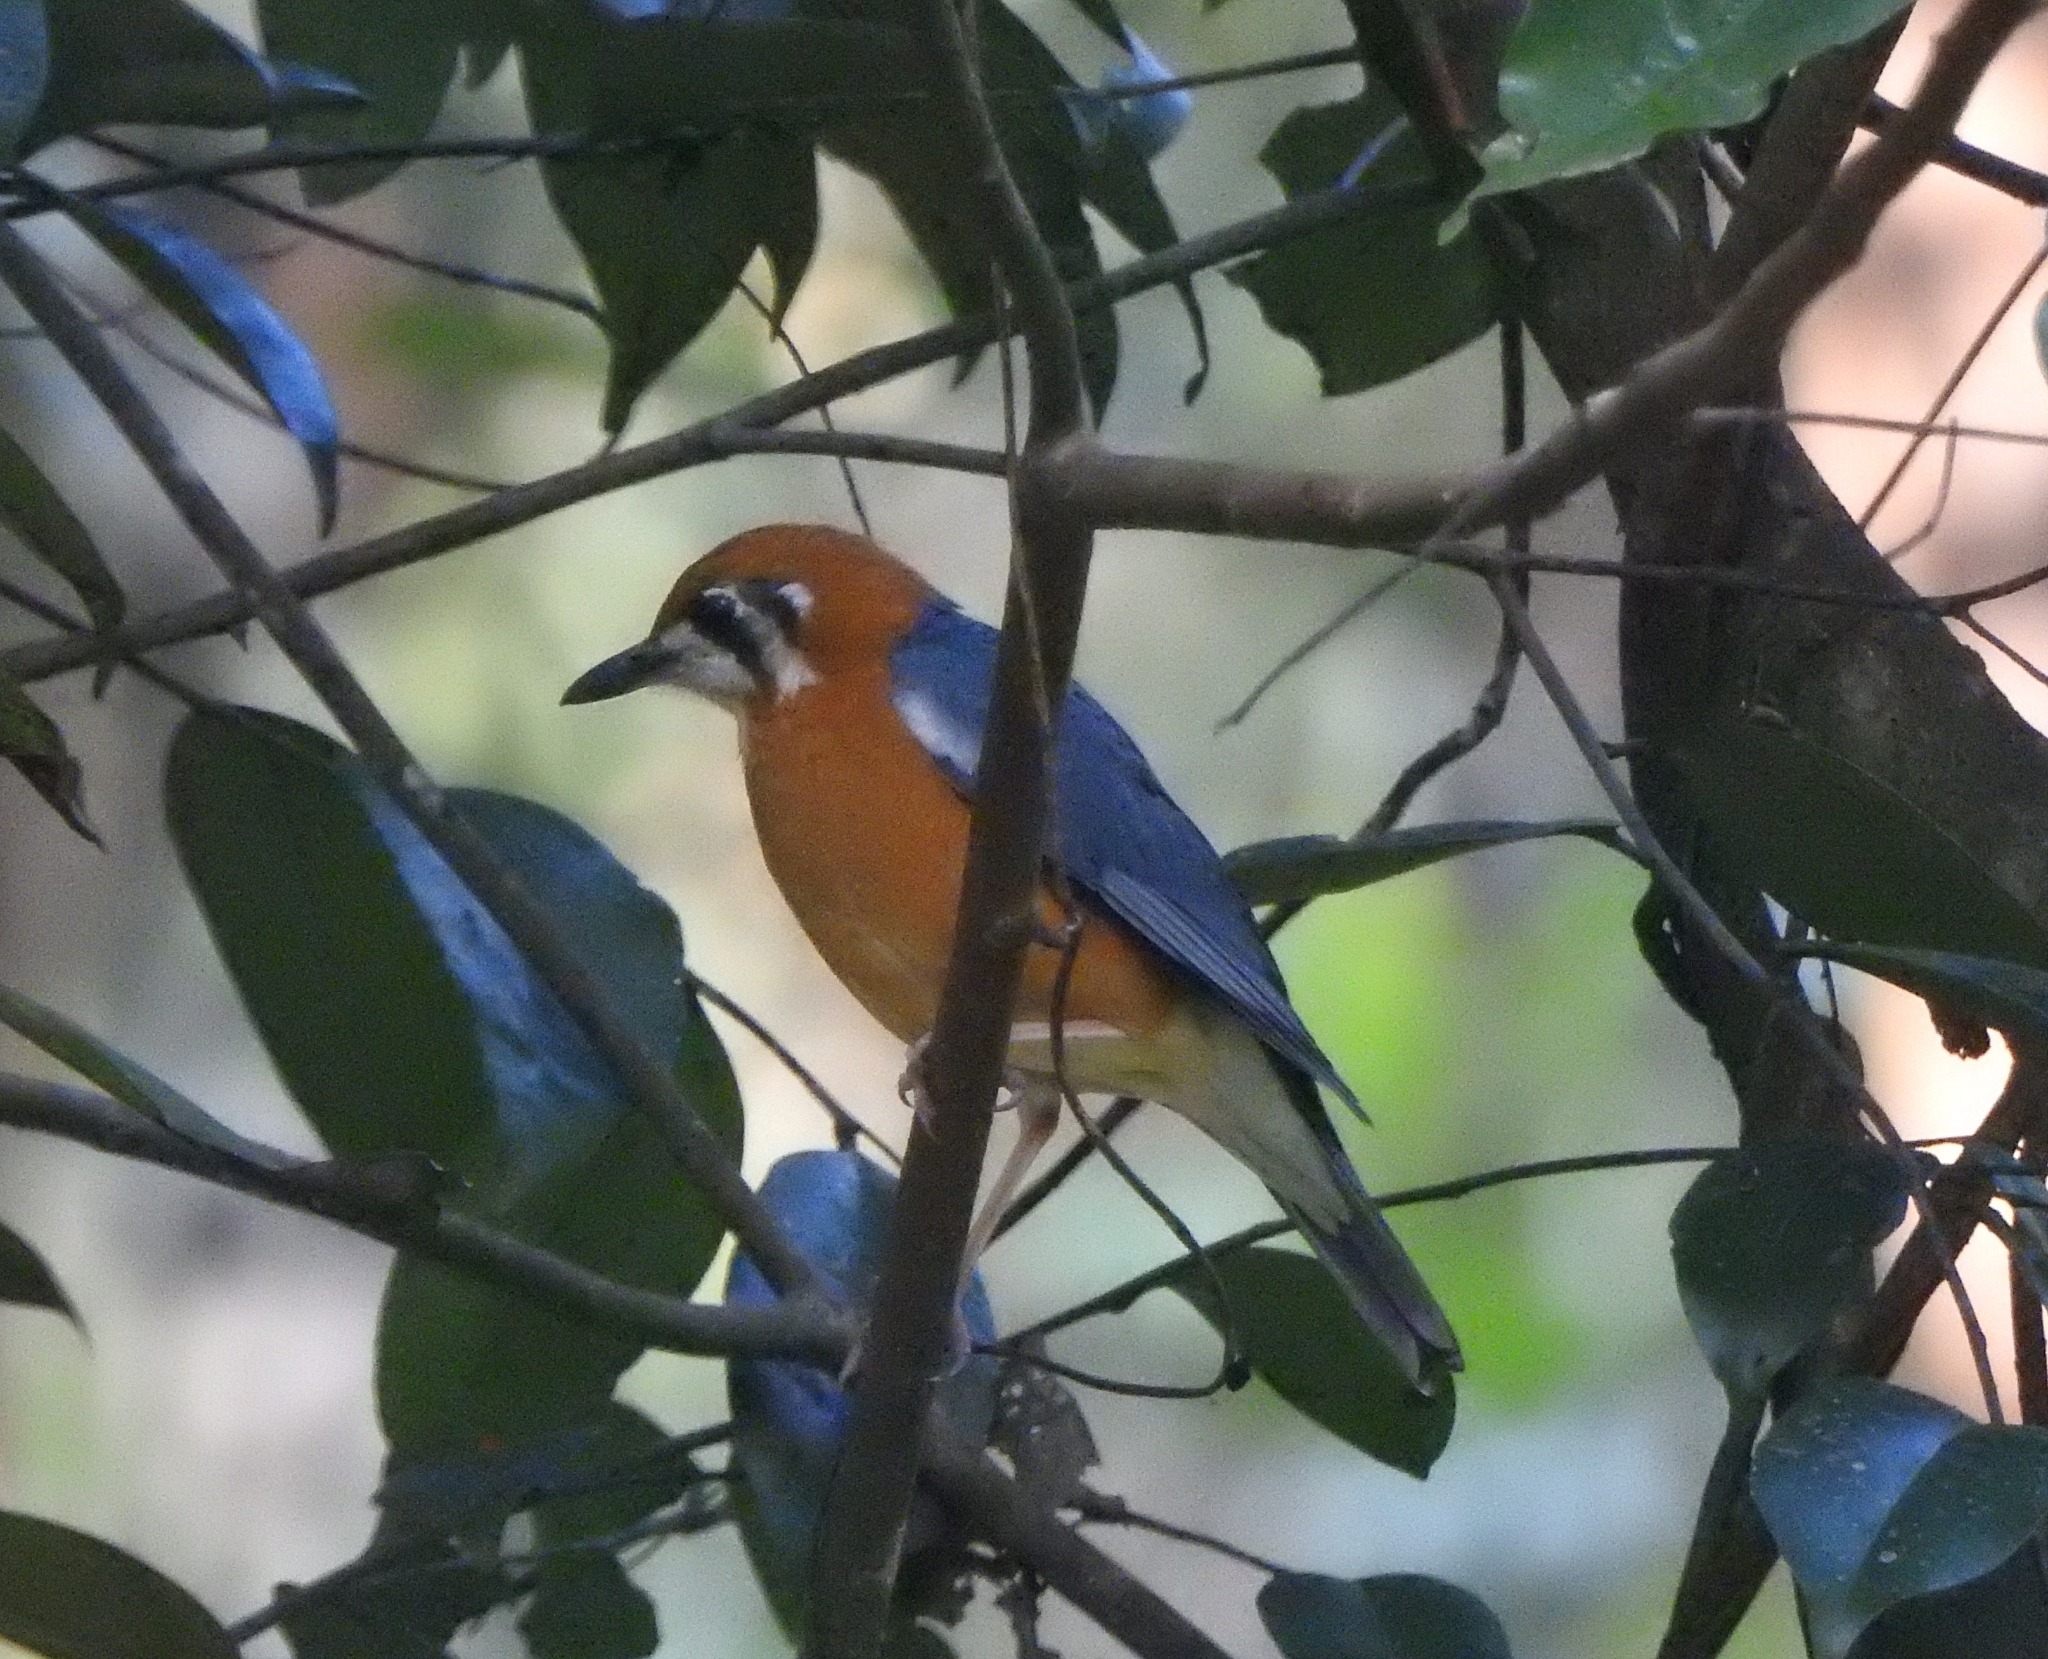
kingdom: Animalia
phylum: Chordata
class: Aves
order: Passeriformes
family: Turdidae
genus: Geokichla
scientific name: Geokichla citrina
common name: Orange-headed thrush
